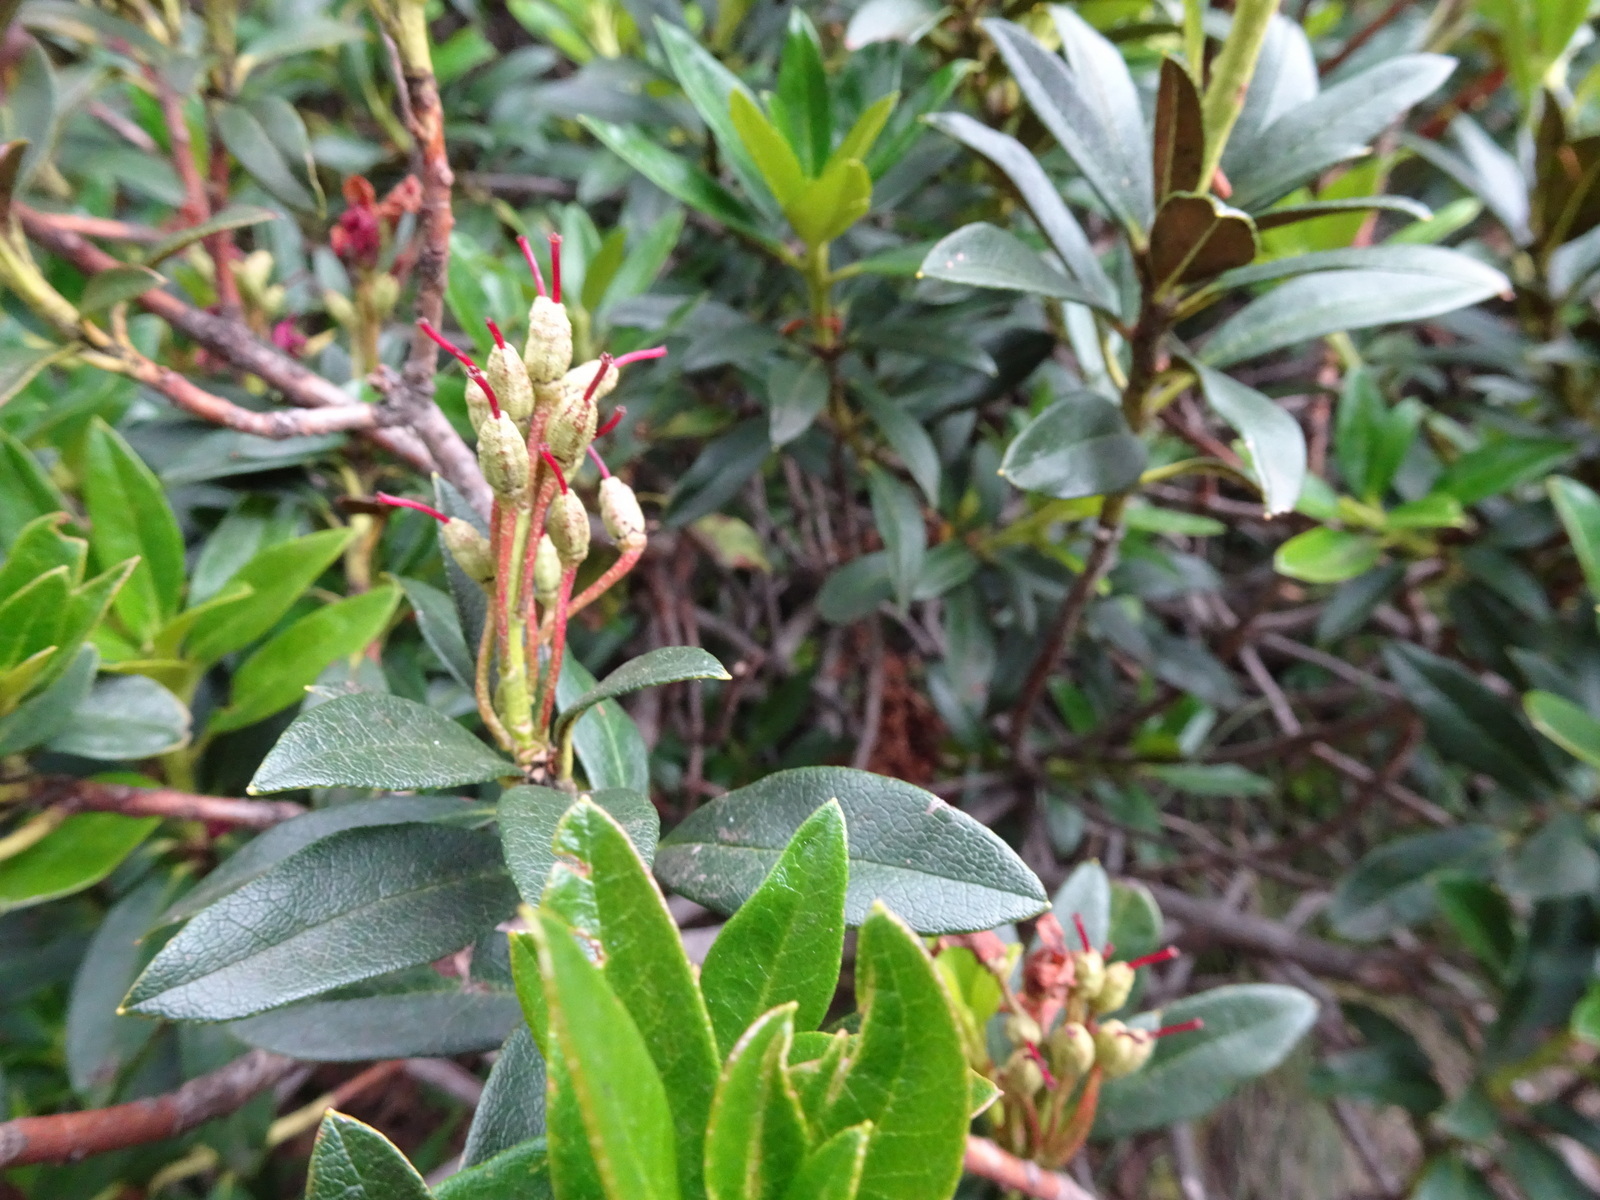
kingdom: Plantae
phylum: Tracheophyta
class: Magnoliopsida
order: Ericales
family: Ericaceae
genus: Rhododendron
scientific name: Rhododendron ferrugineum
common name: Alpenrose
